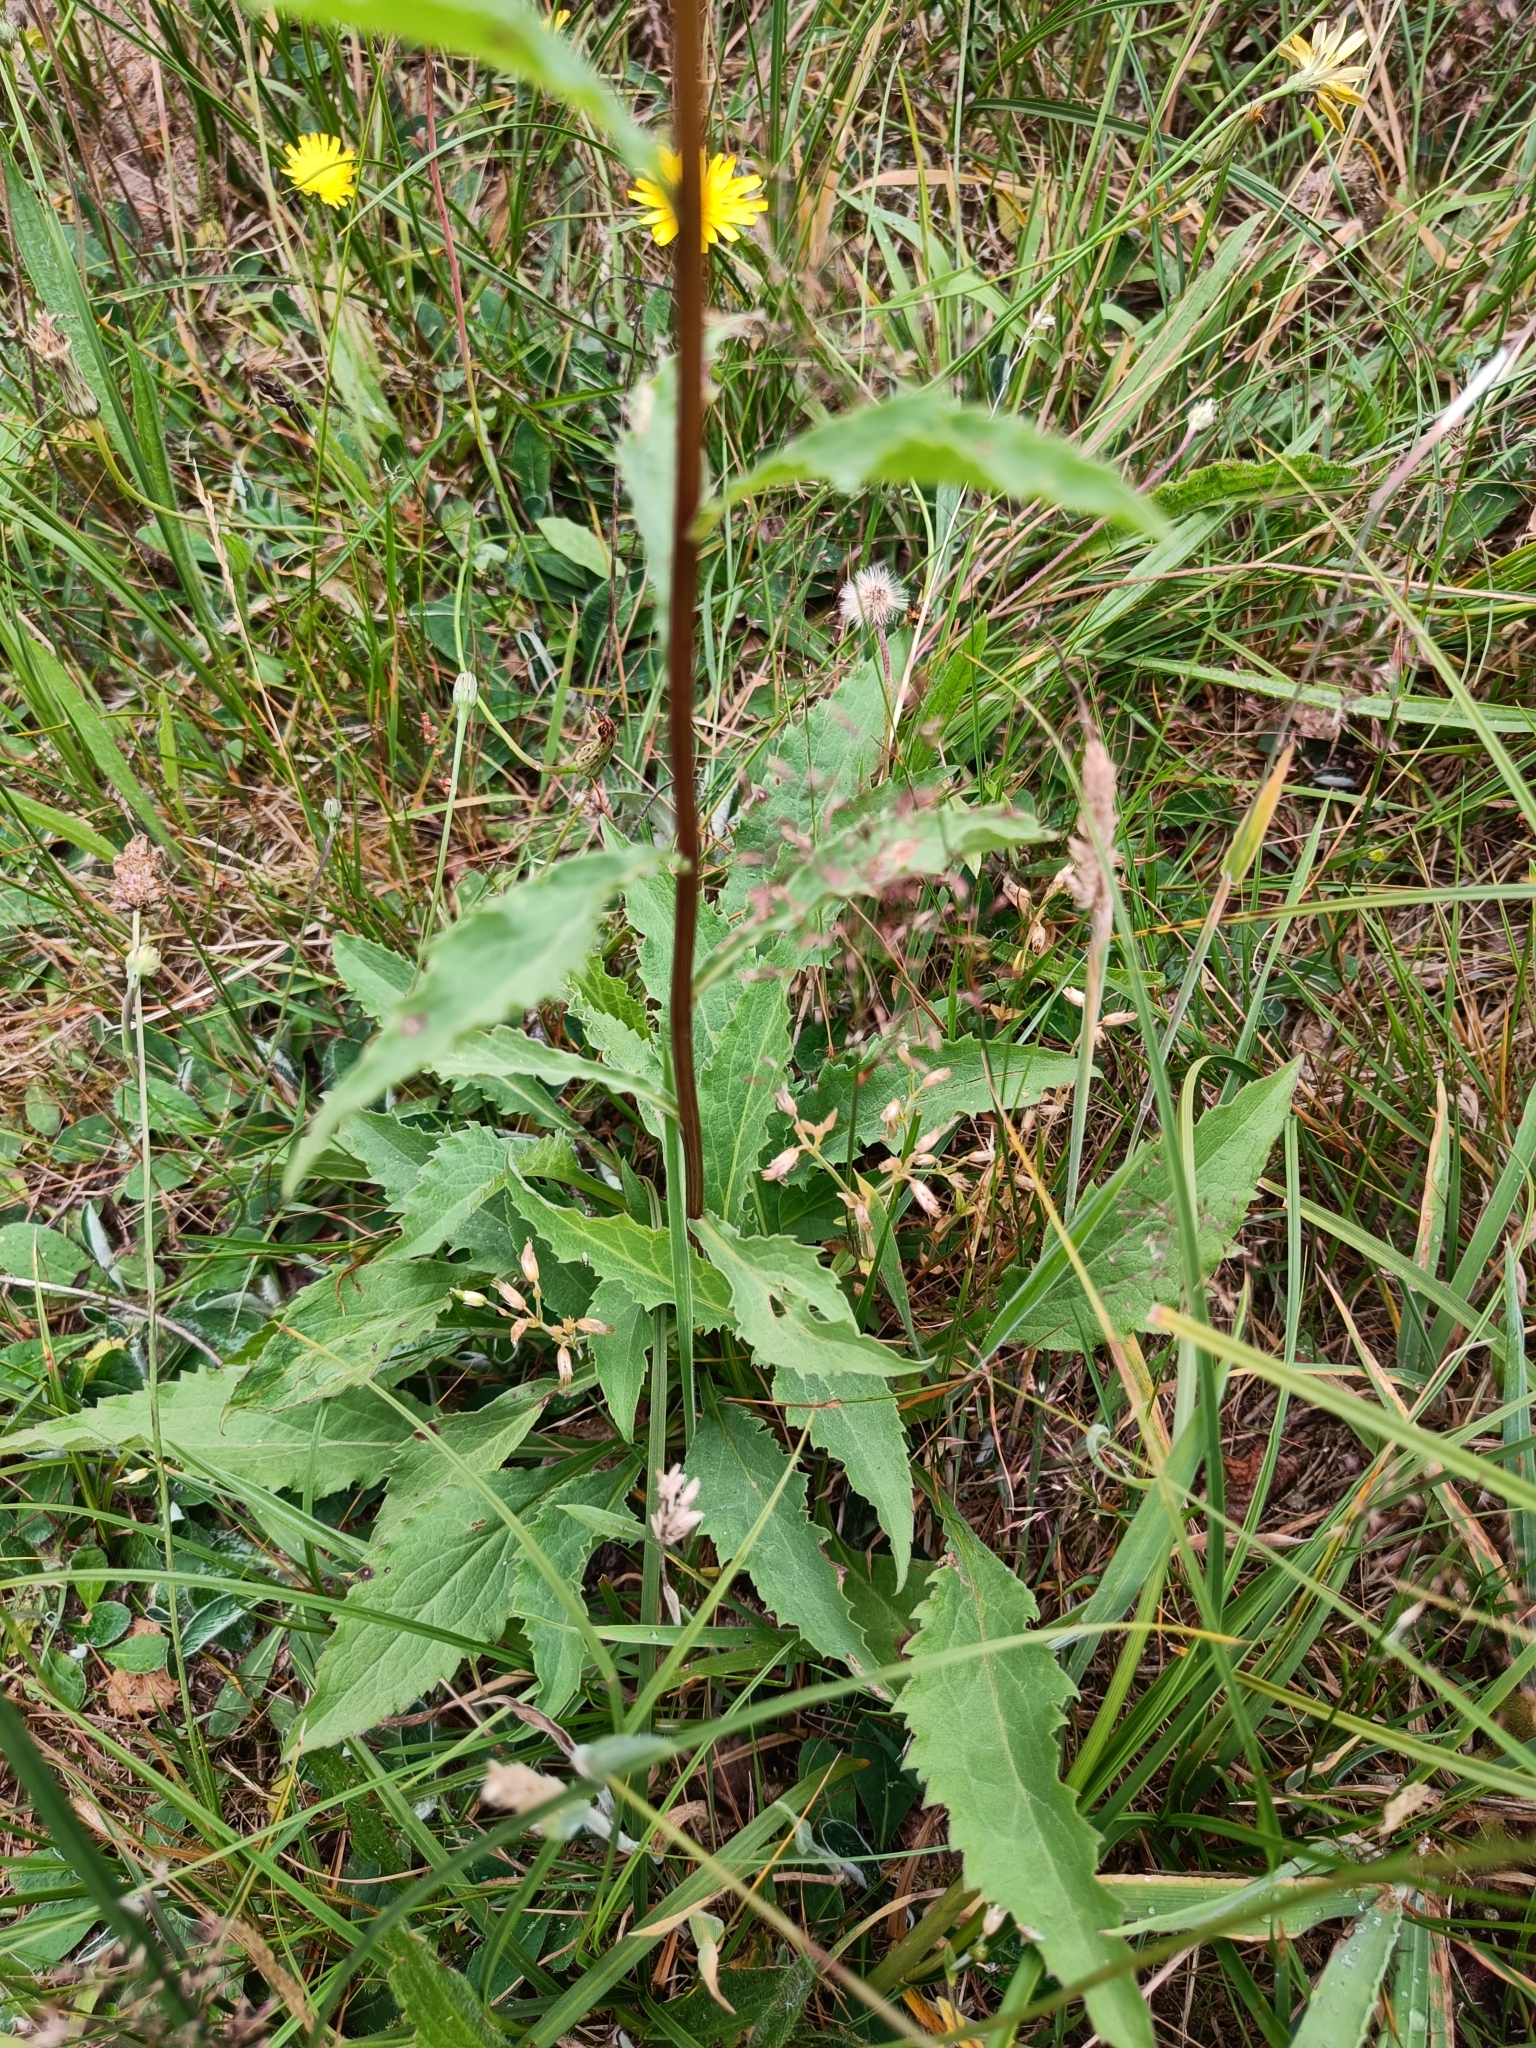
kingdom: Plantae
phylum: Tracheophyta
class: Magnoliopsida
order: Asterales
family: Asteraceae
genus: Solidago
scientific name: Solidago virgaurea
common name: Goldenrod
